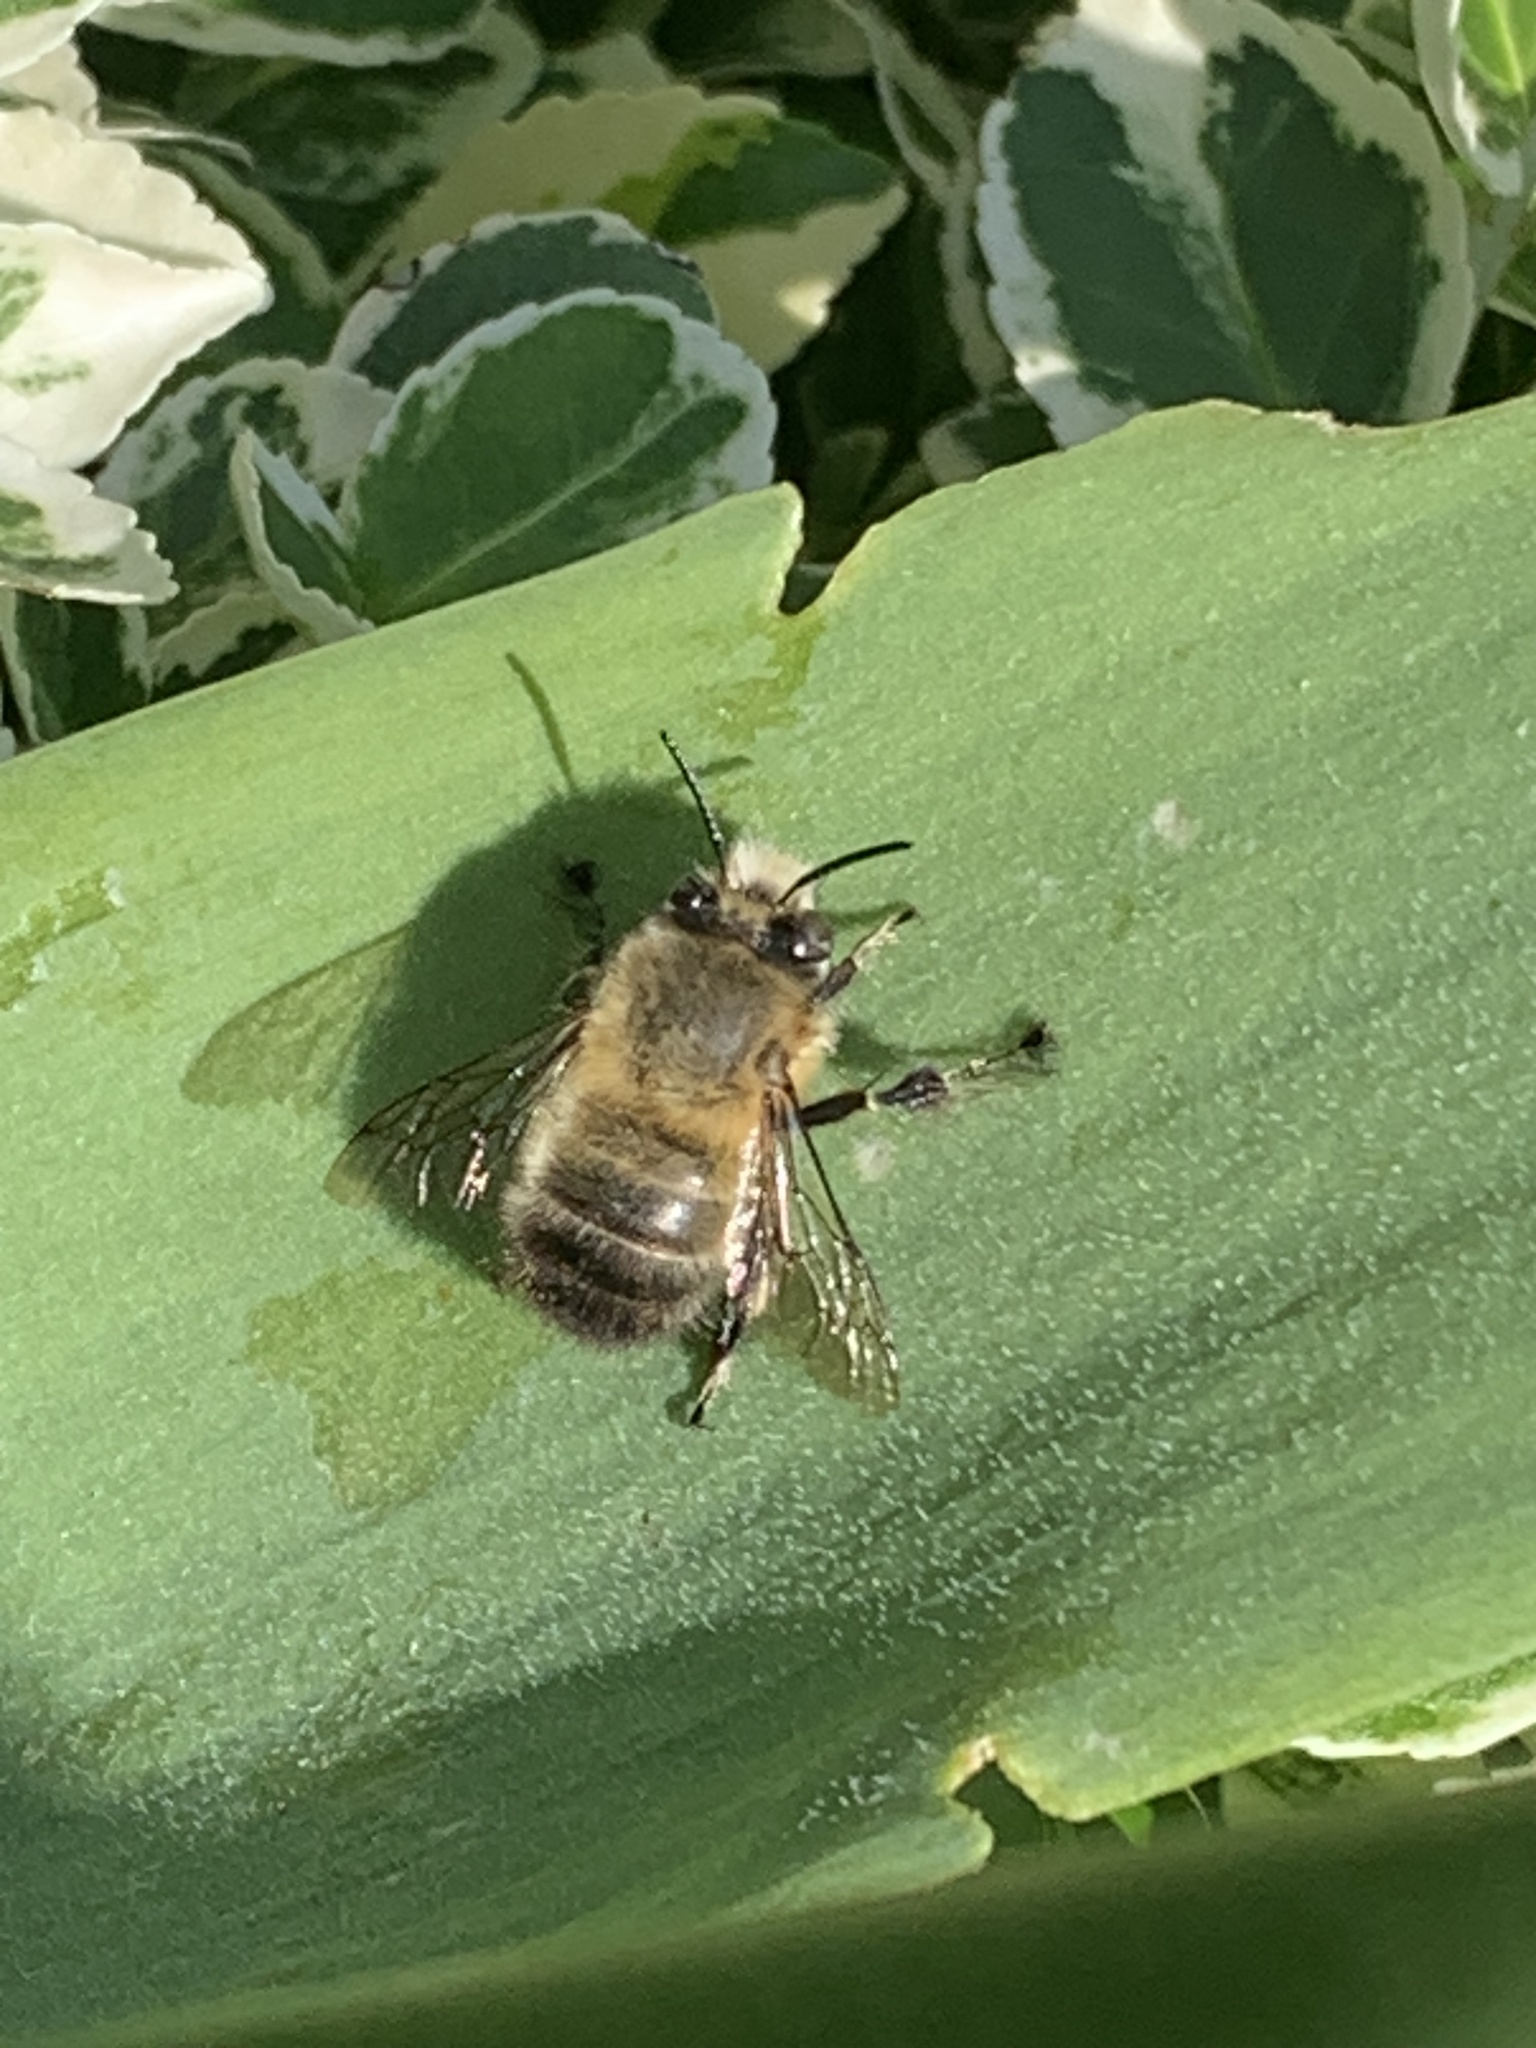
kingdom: Animalia
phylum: Arthropoda
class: Insecta
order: Hymenoptera
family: Apidae
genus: Anthophora
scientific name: Anthophora plumipes
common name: Hairy-footed flower bee
